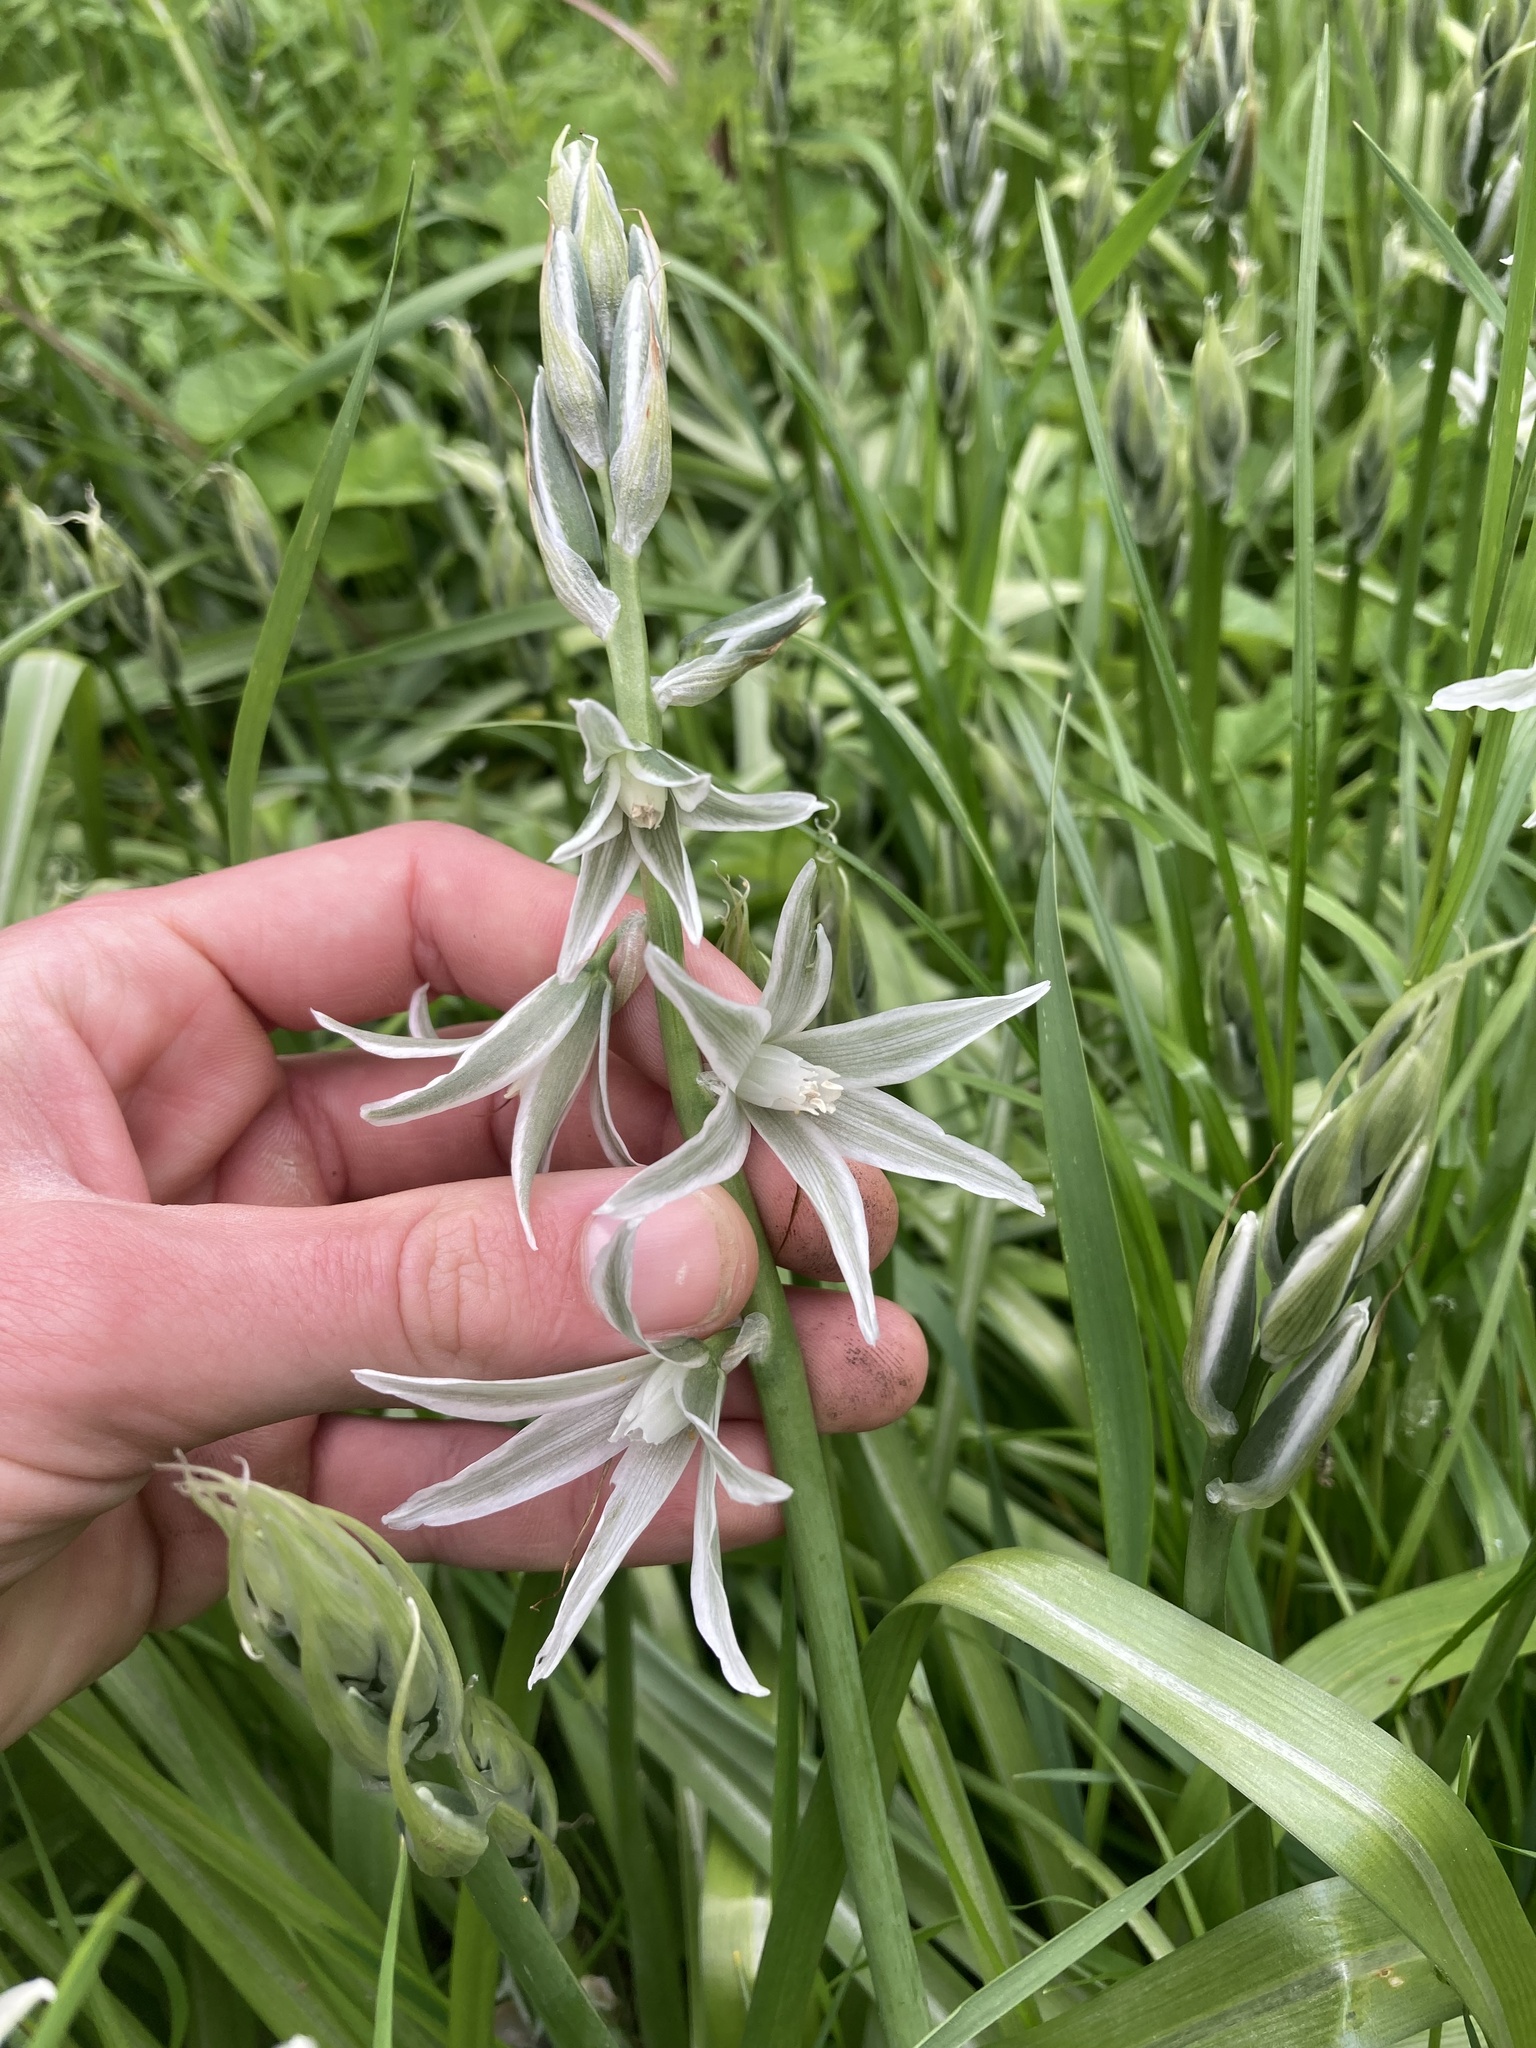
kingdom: Plantae
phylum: Tracheophyta
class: Liliopsida
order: Asparagales
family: Asparagaceae
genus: Ornithogalum
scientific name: Ornithogalum nutans
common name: Drooping star-of-bethlehem
